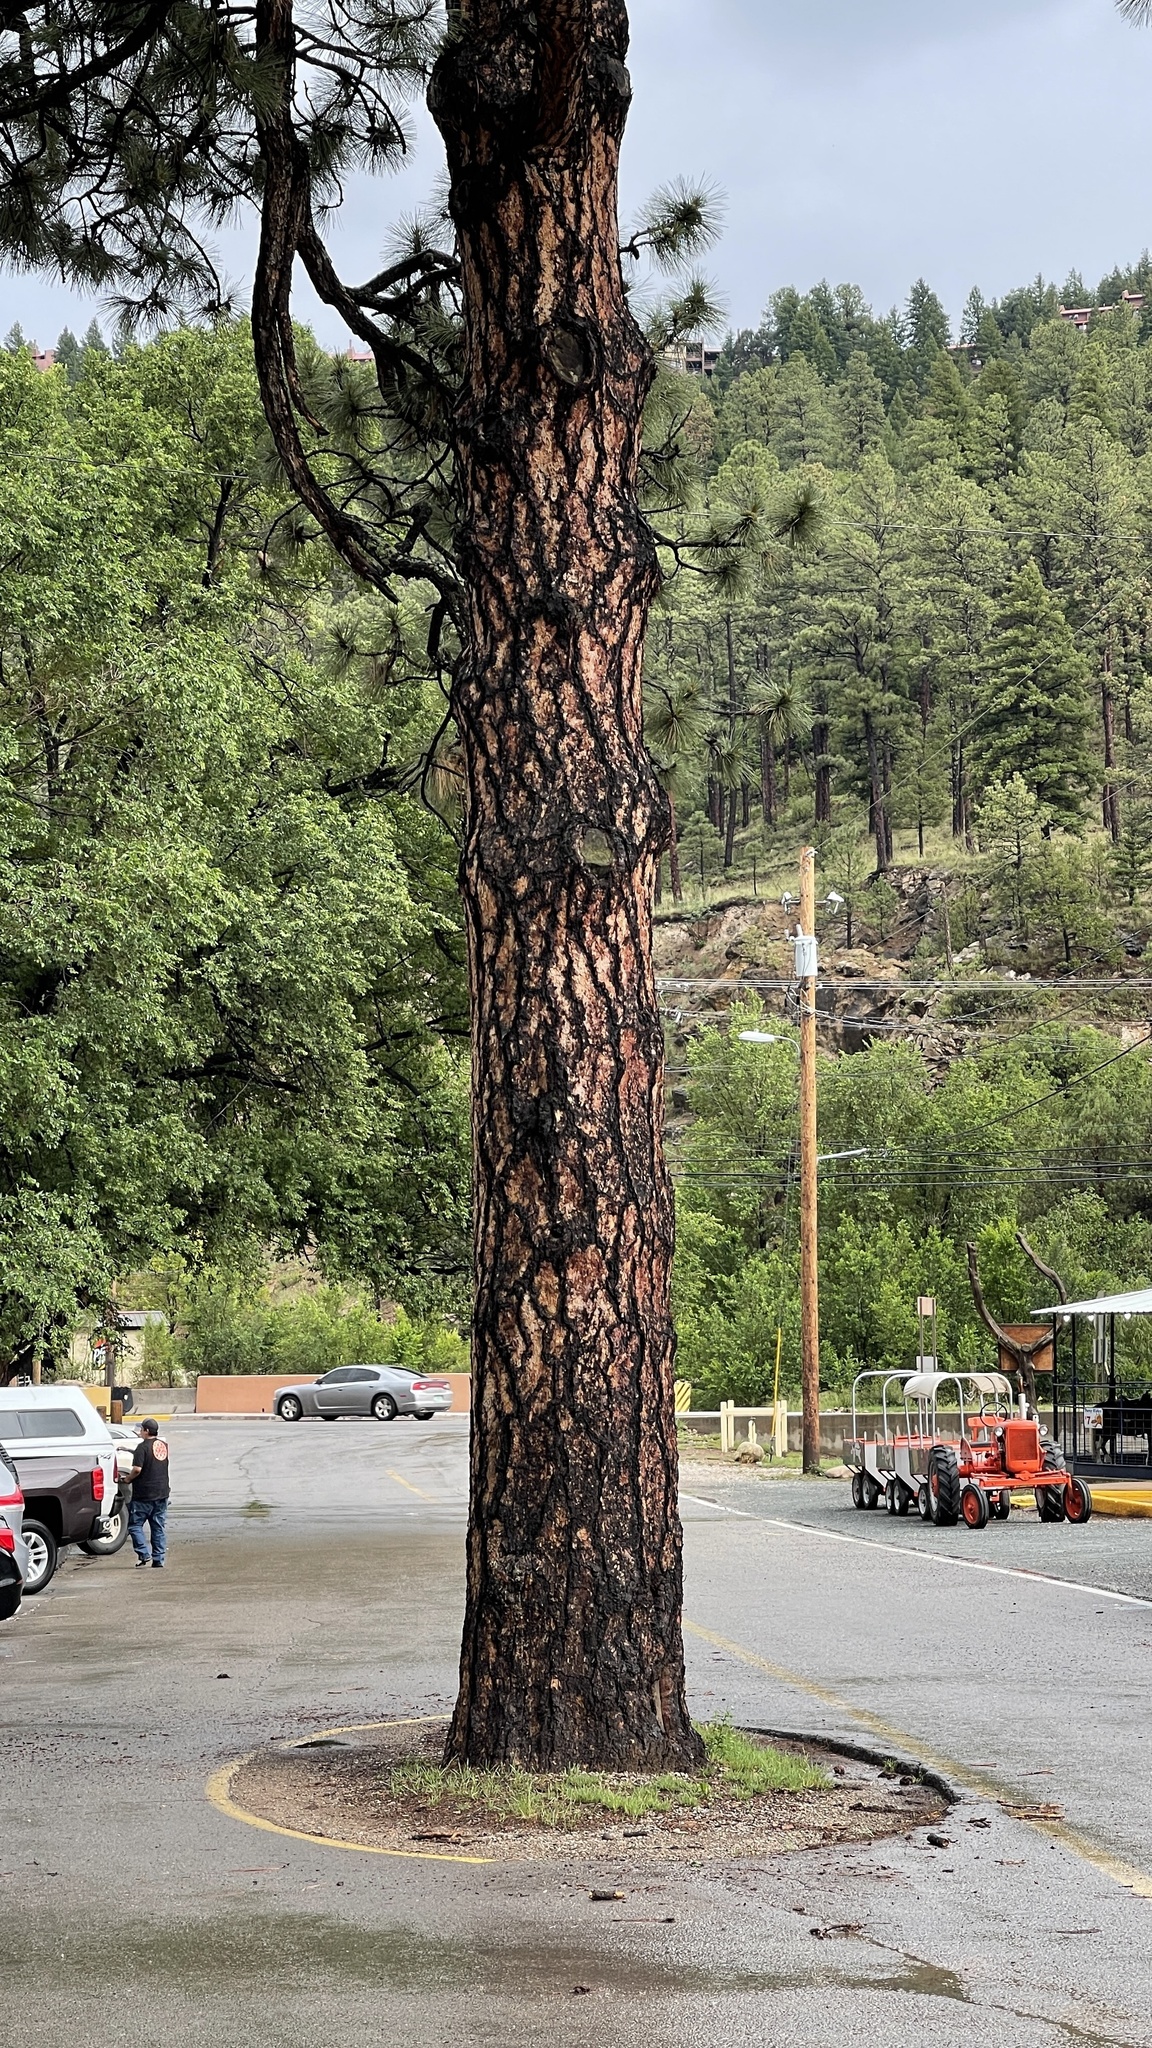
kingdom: Plantae
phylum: Tracheophyta
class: Pinopsida
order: Pinales
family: Pinaceae
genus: Pinus
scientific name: Pinus ponderosa
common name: Western yellow-pine
